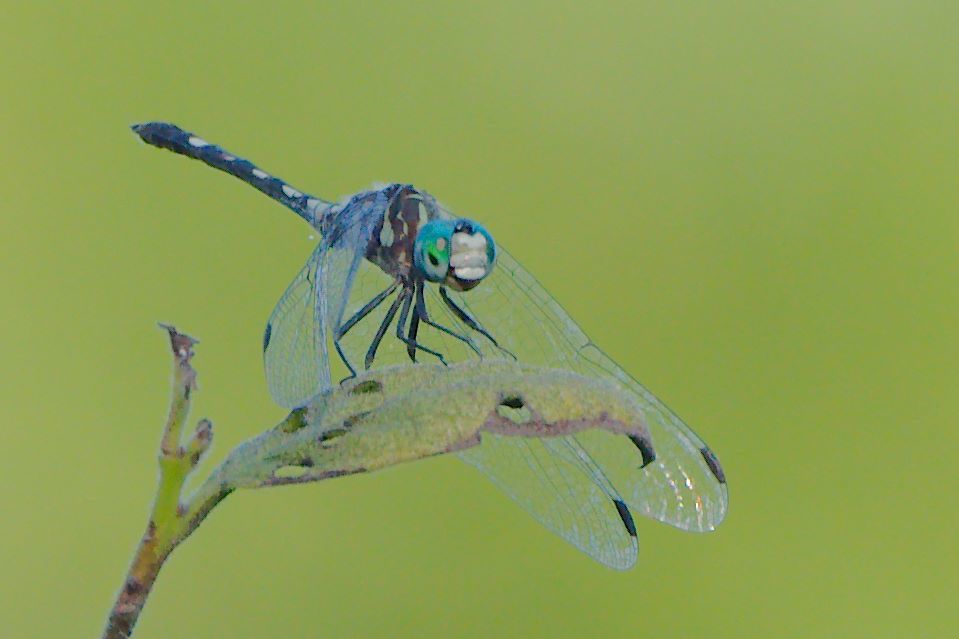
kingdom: Animalia
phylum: Arthropoda
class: Insecta
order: Odonata
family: Libellulidae
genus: Micrathyria
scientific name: Micrathyria hagenii
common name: Thornbush dasher
